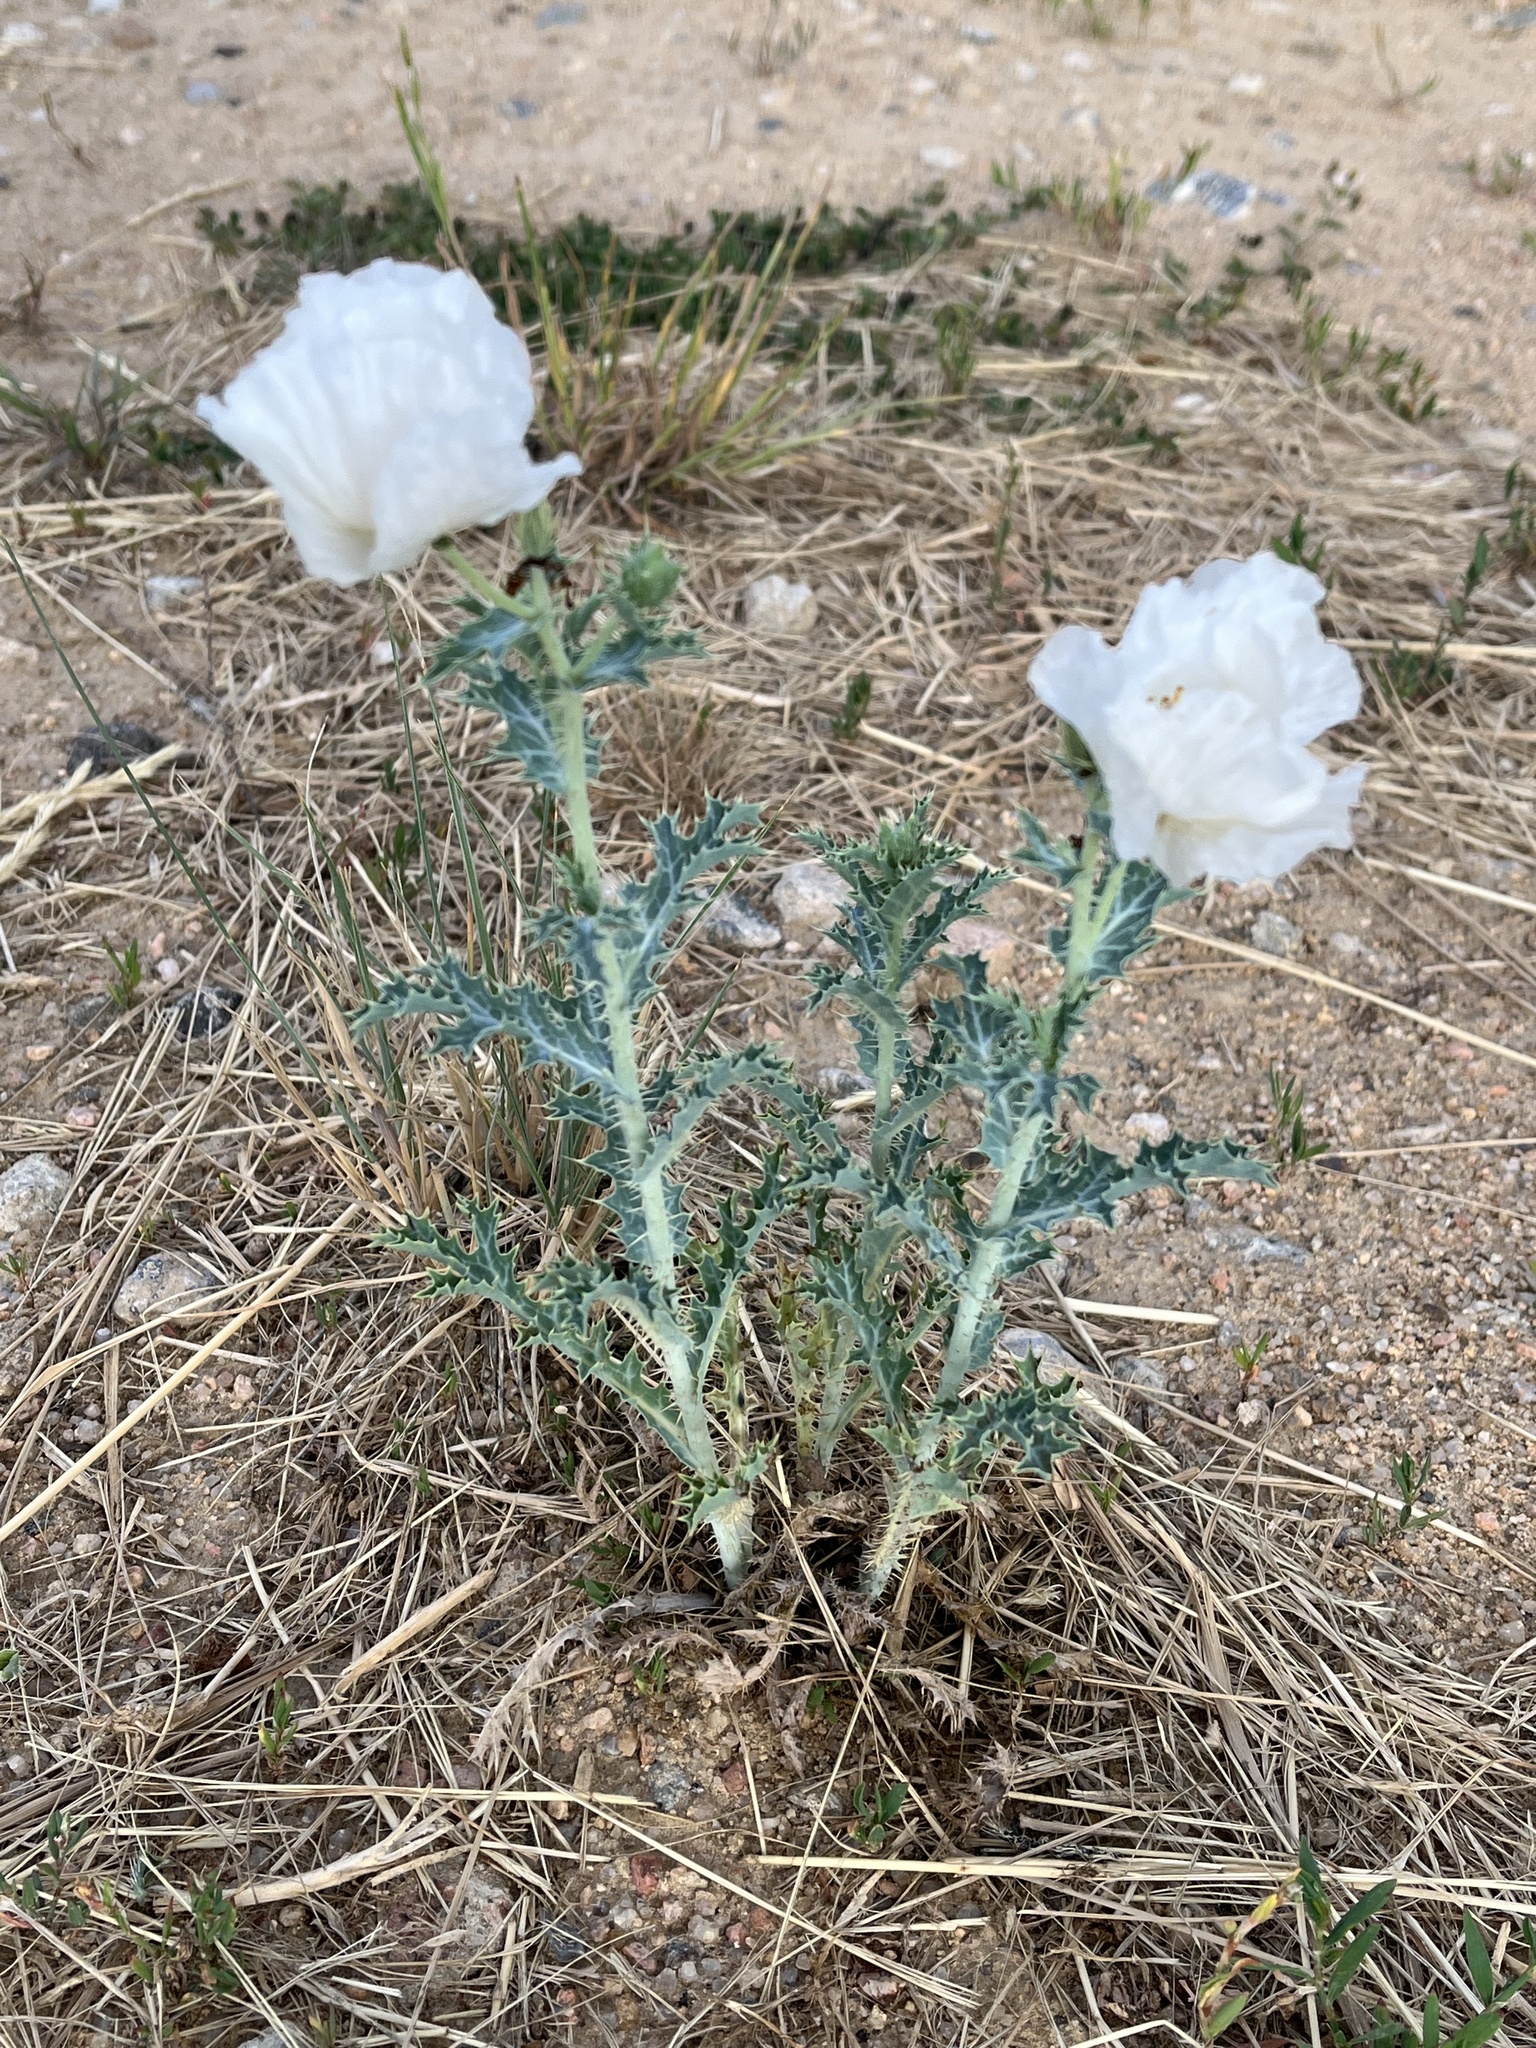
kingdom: Plantae
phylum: Tracheophyta
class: Magnoliopsida
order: Ranunculales
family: Papaveraceae
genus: Argemone
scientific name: Argemone polyanthemos
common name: Plains prickly-poppy
